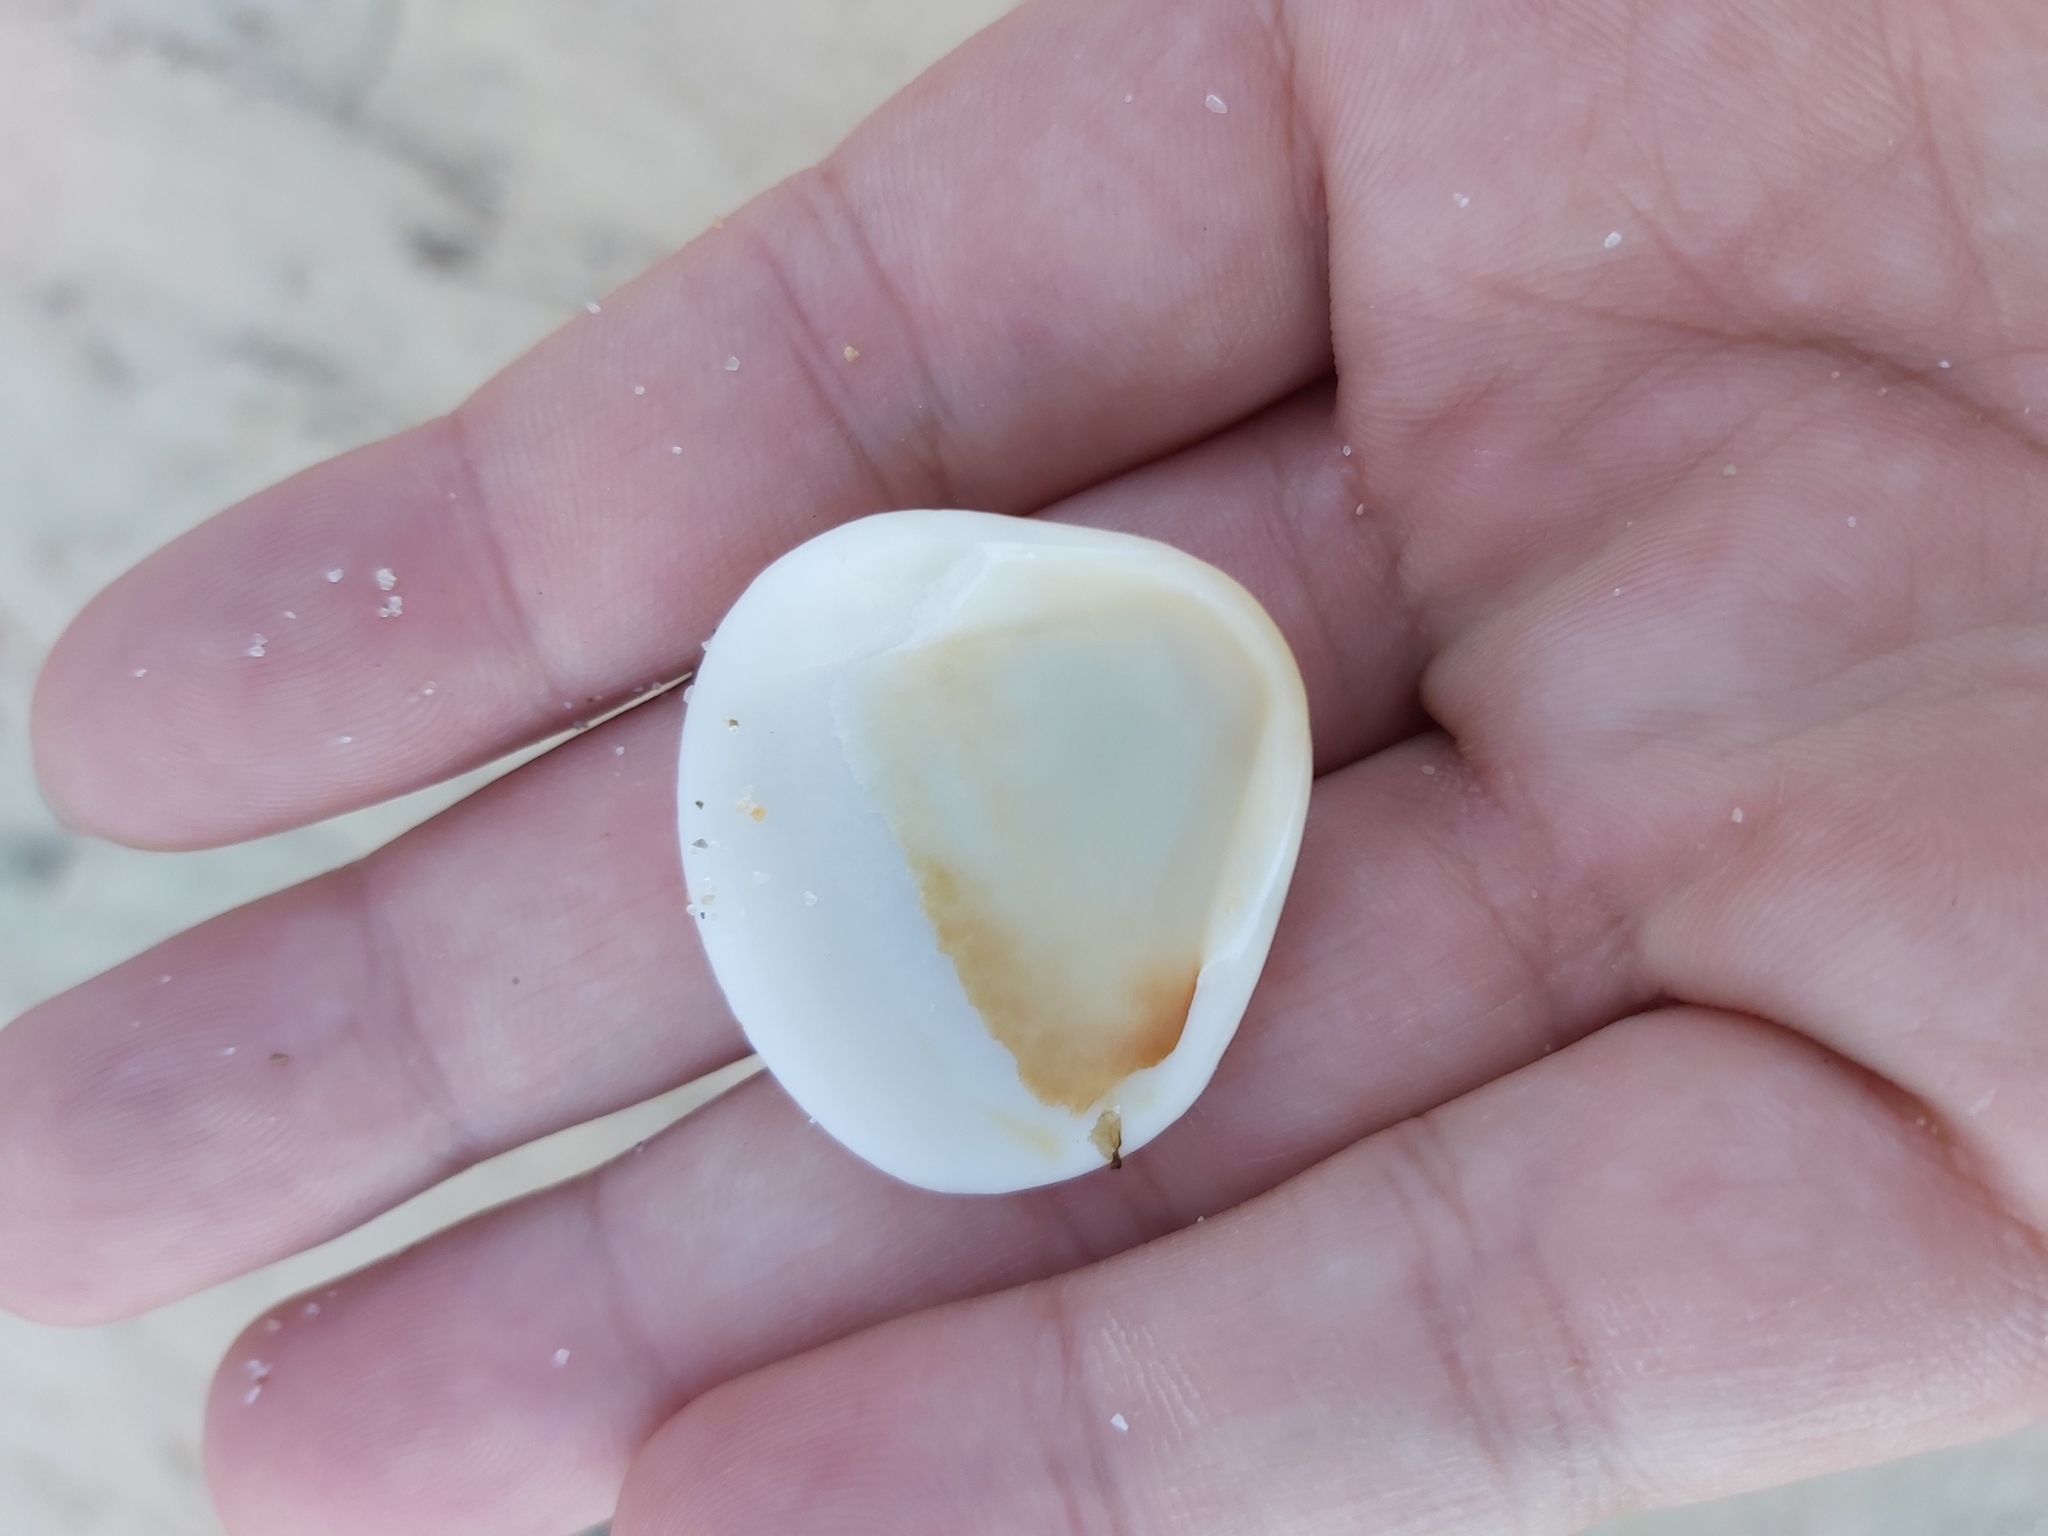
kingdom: Animalia
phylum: Mollusca
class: Bivalvia
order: Arcida
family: Glycymerididae
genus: Glycymeris
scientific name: Glycymeris grayana
